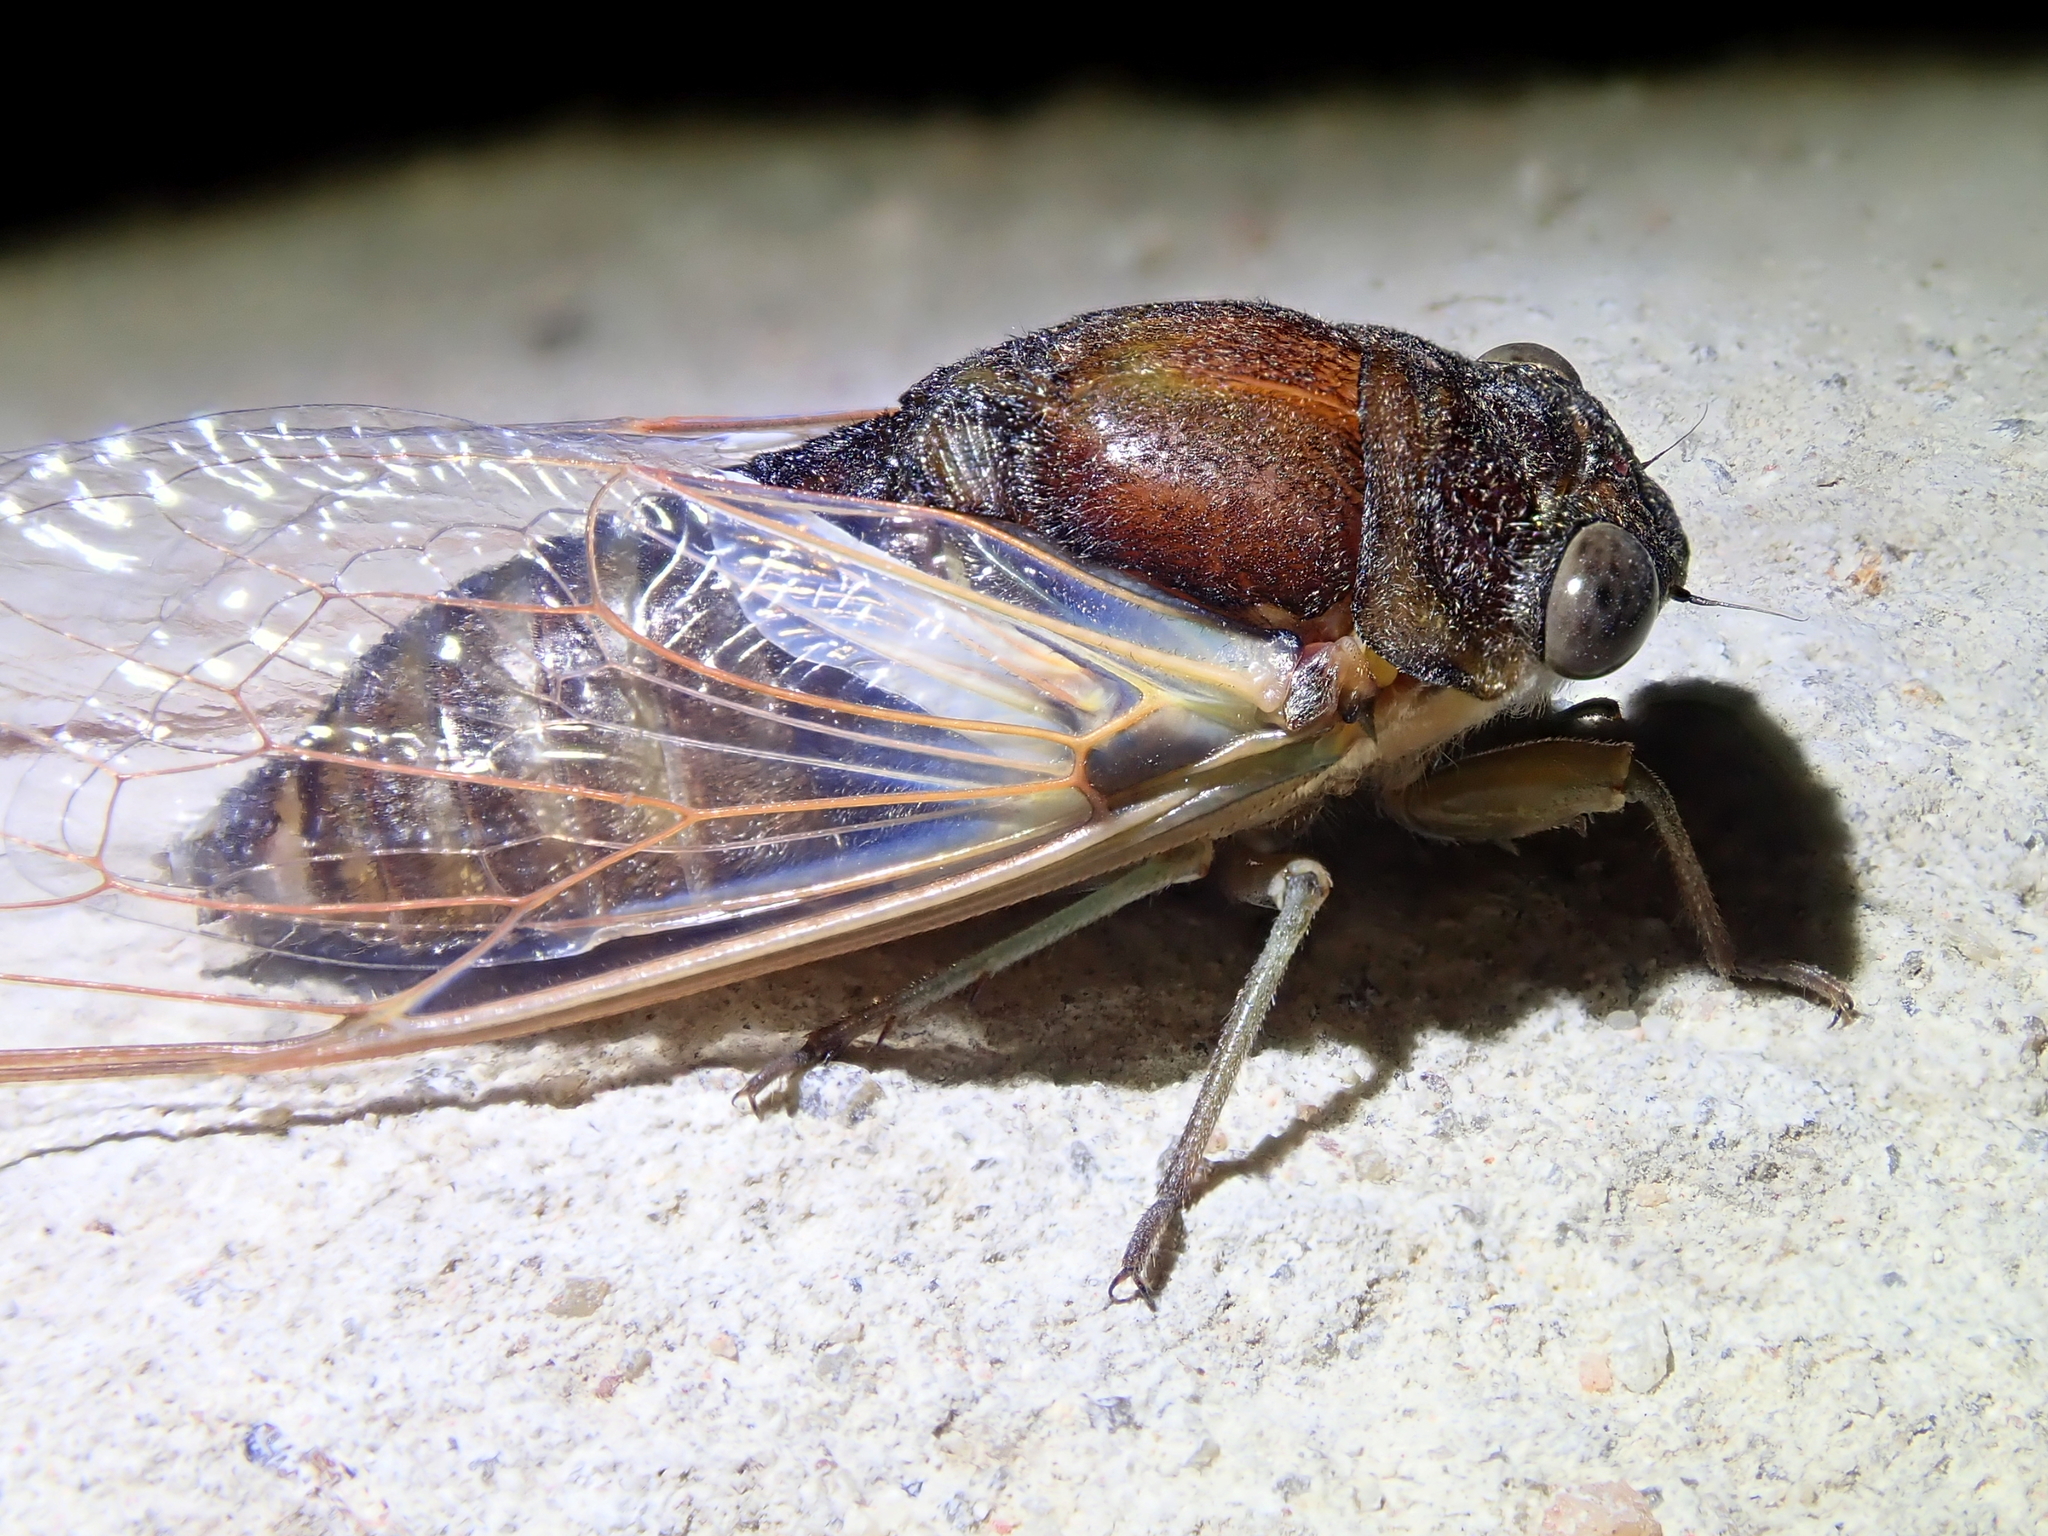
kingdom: Animalia
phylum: Arthropoda
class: Insecta
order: Hemiptera
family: Cicadidae
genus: Ariasa
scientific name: Ariasa albiplica
